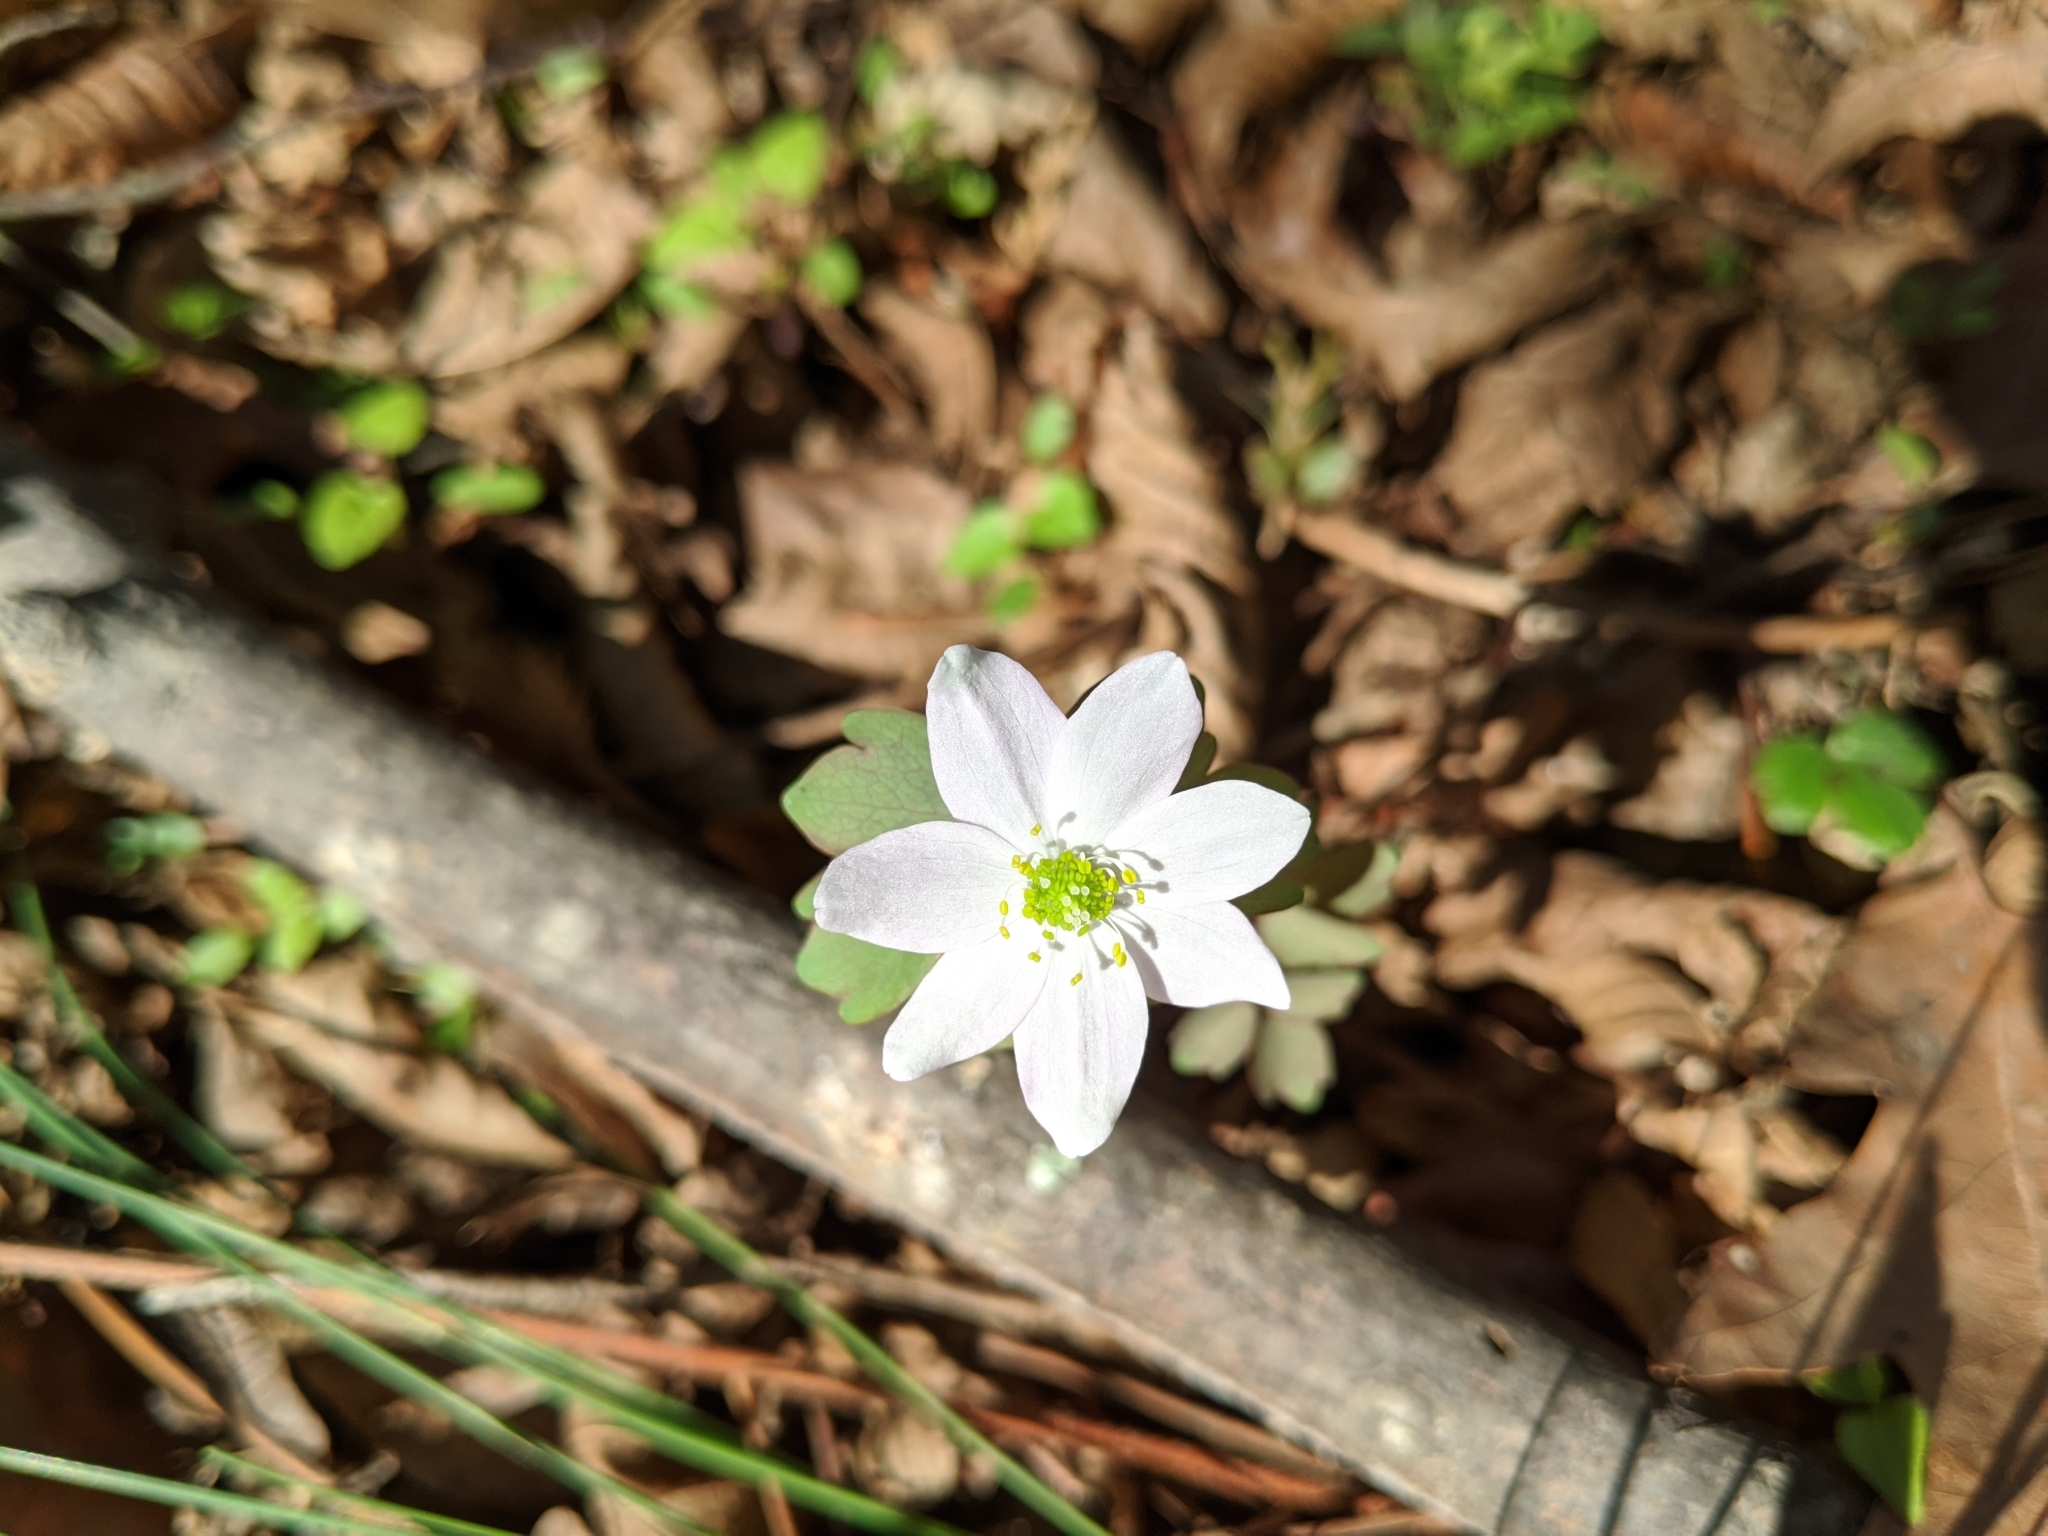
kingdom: Plantae
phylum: Tracheophyta
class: Magnoliopsida
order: Ranunculales
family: Ranunculaceae
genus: Thalictrum
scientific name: Thalictrum thalictroides
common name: Rue-anemone
